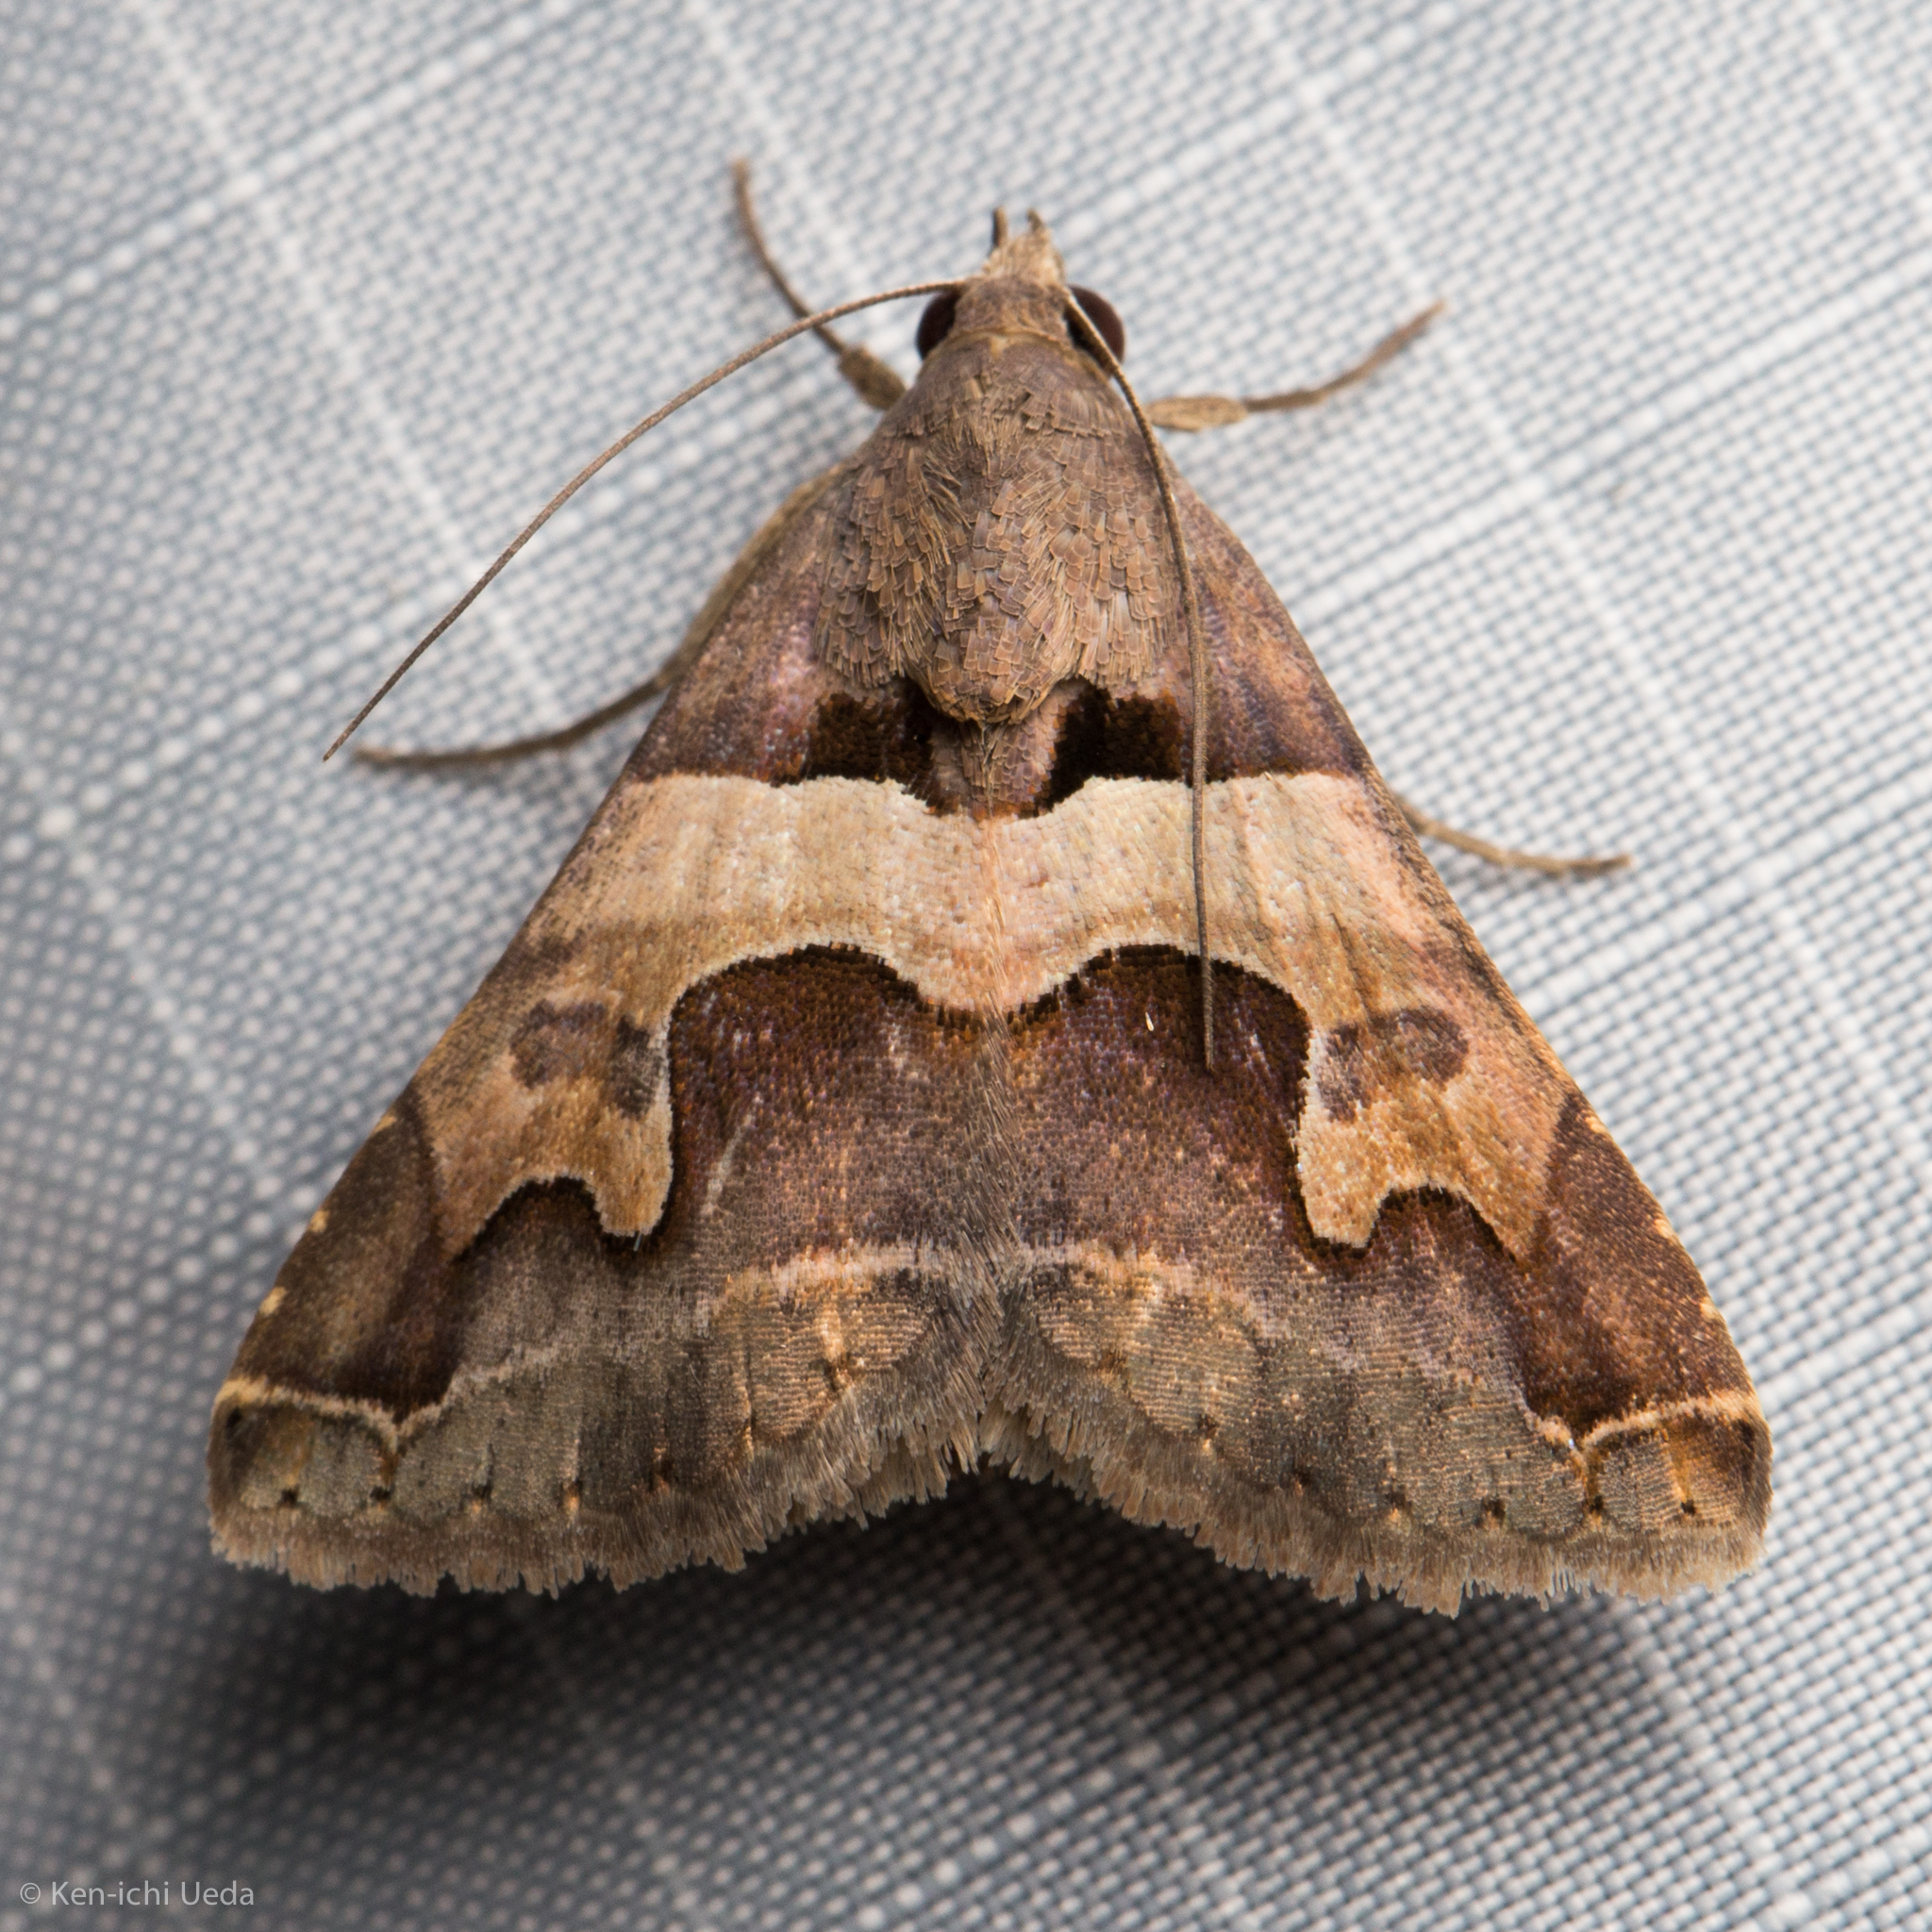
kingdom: Animalia
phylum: Arthropoda
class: Insecta
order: Lepidoptera
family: Erebidae
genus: Panula
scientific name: Panula inconstans
